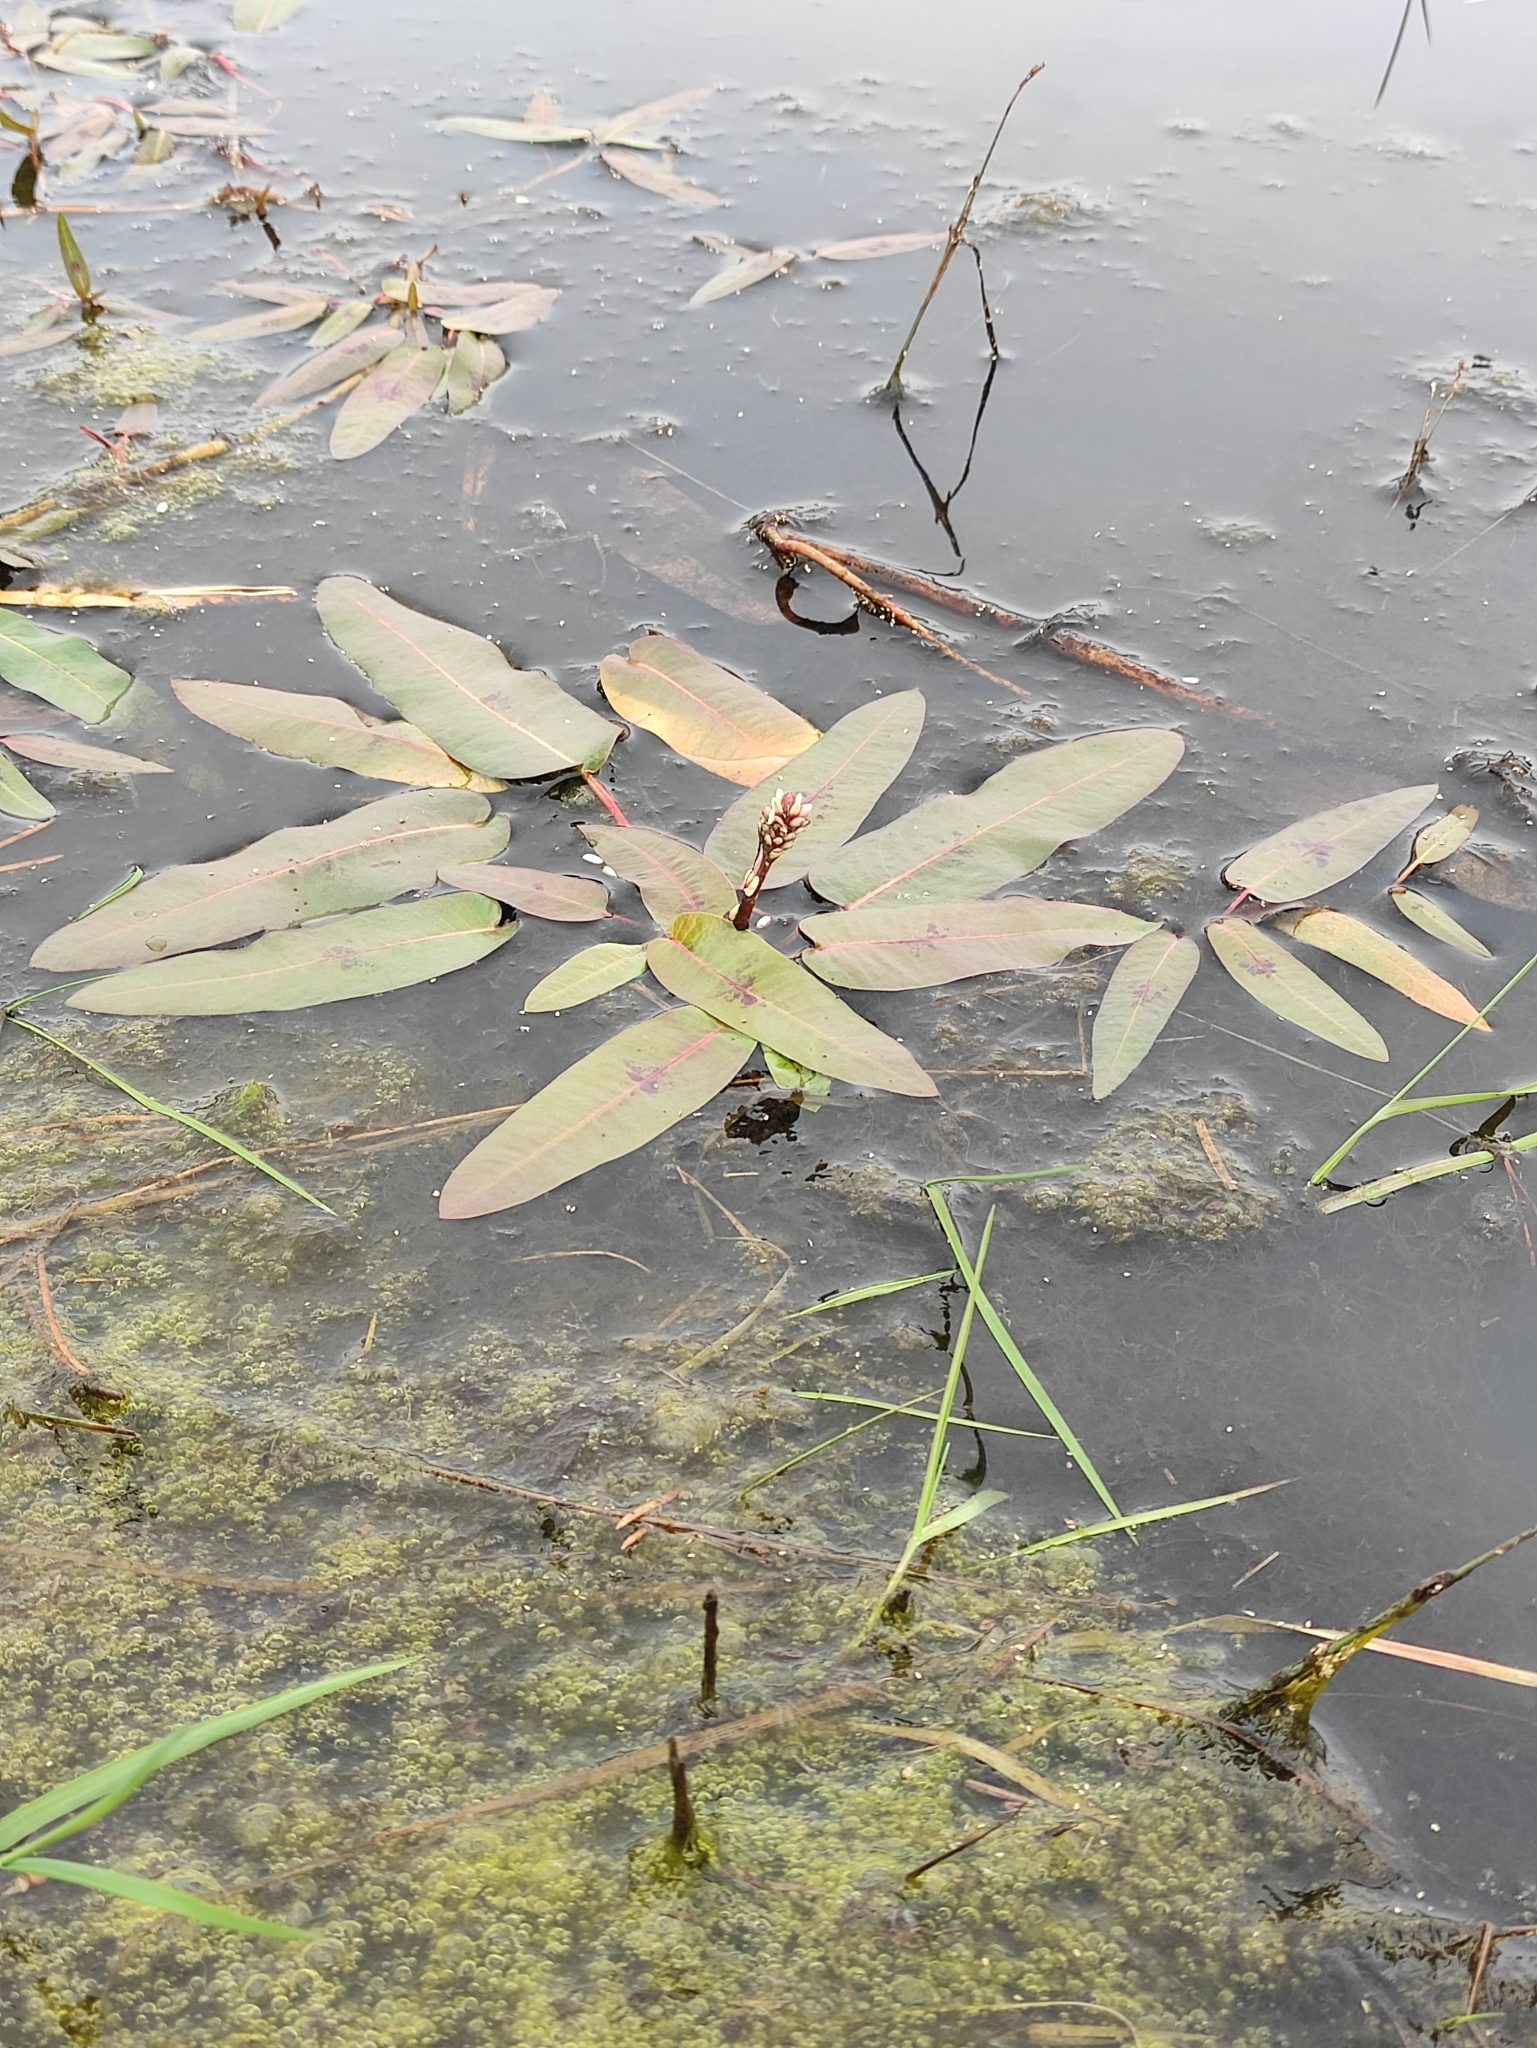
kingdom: Plantae
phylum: Tracheophyta
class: Magnoliopsida
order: Caryophyllales
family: Polygonaceae
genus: Persicaria
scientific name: Persicaria amphibia
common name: Amphibious bistort
